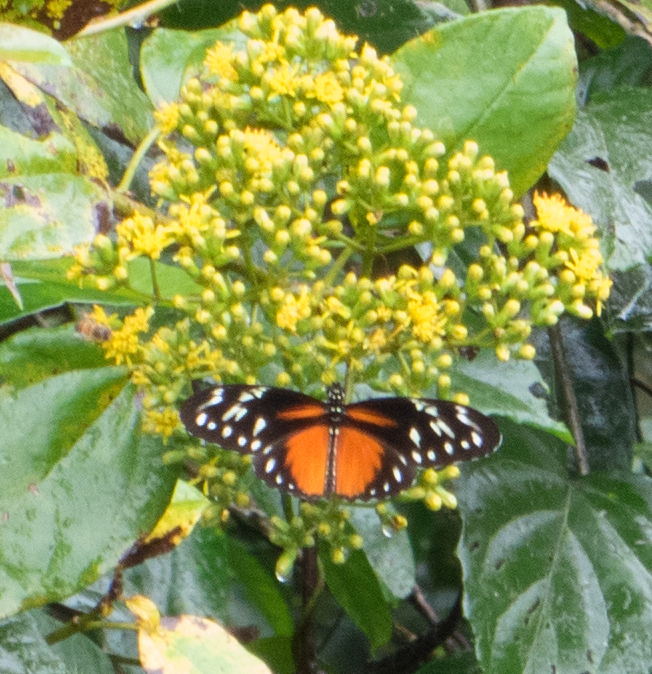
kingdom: Animalia
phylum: Arthropoda
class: Insecta
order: Lepidoptera
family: Nymphalidae
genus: Heliconius
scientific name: Heliconius hecalesia
